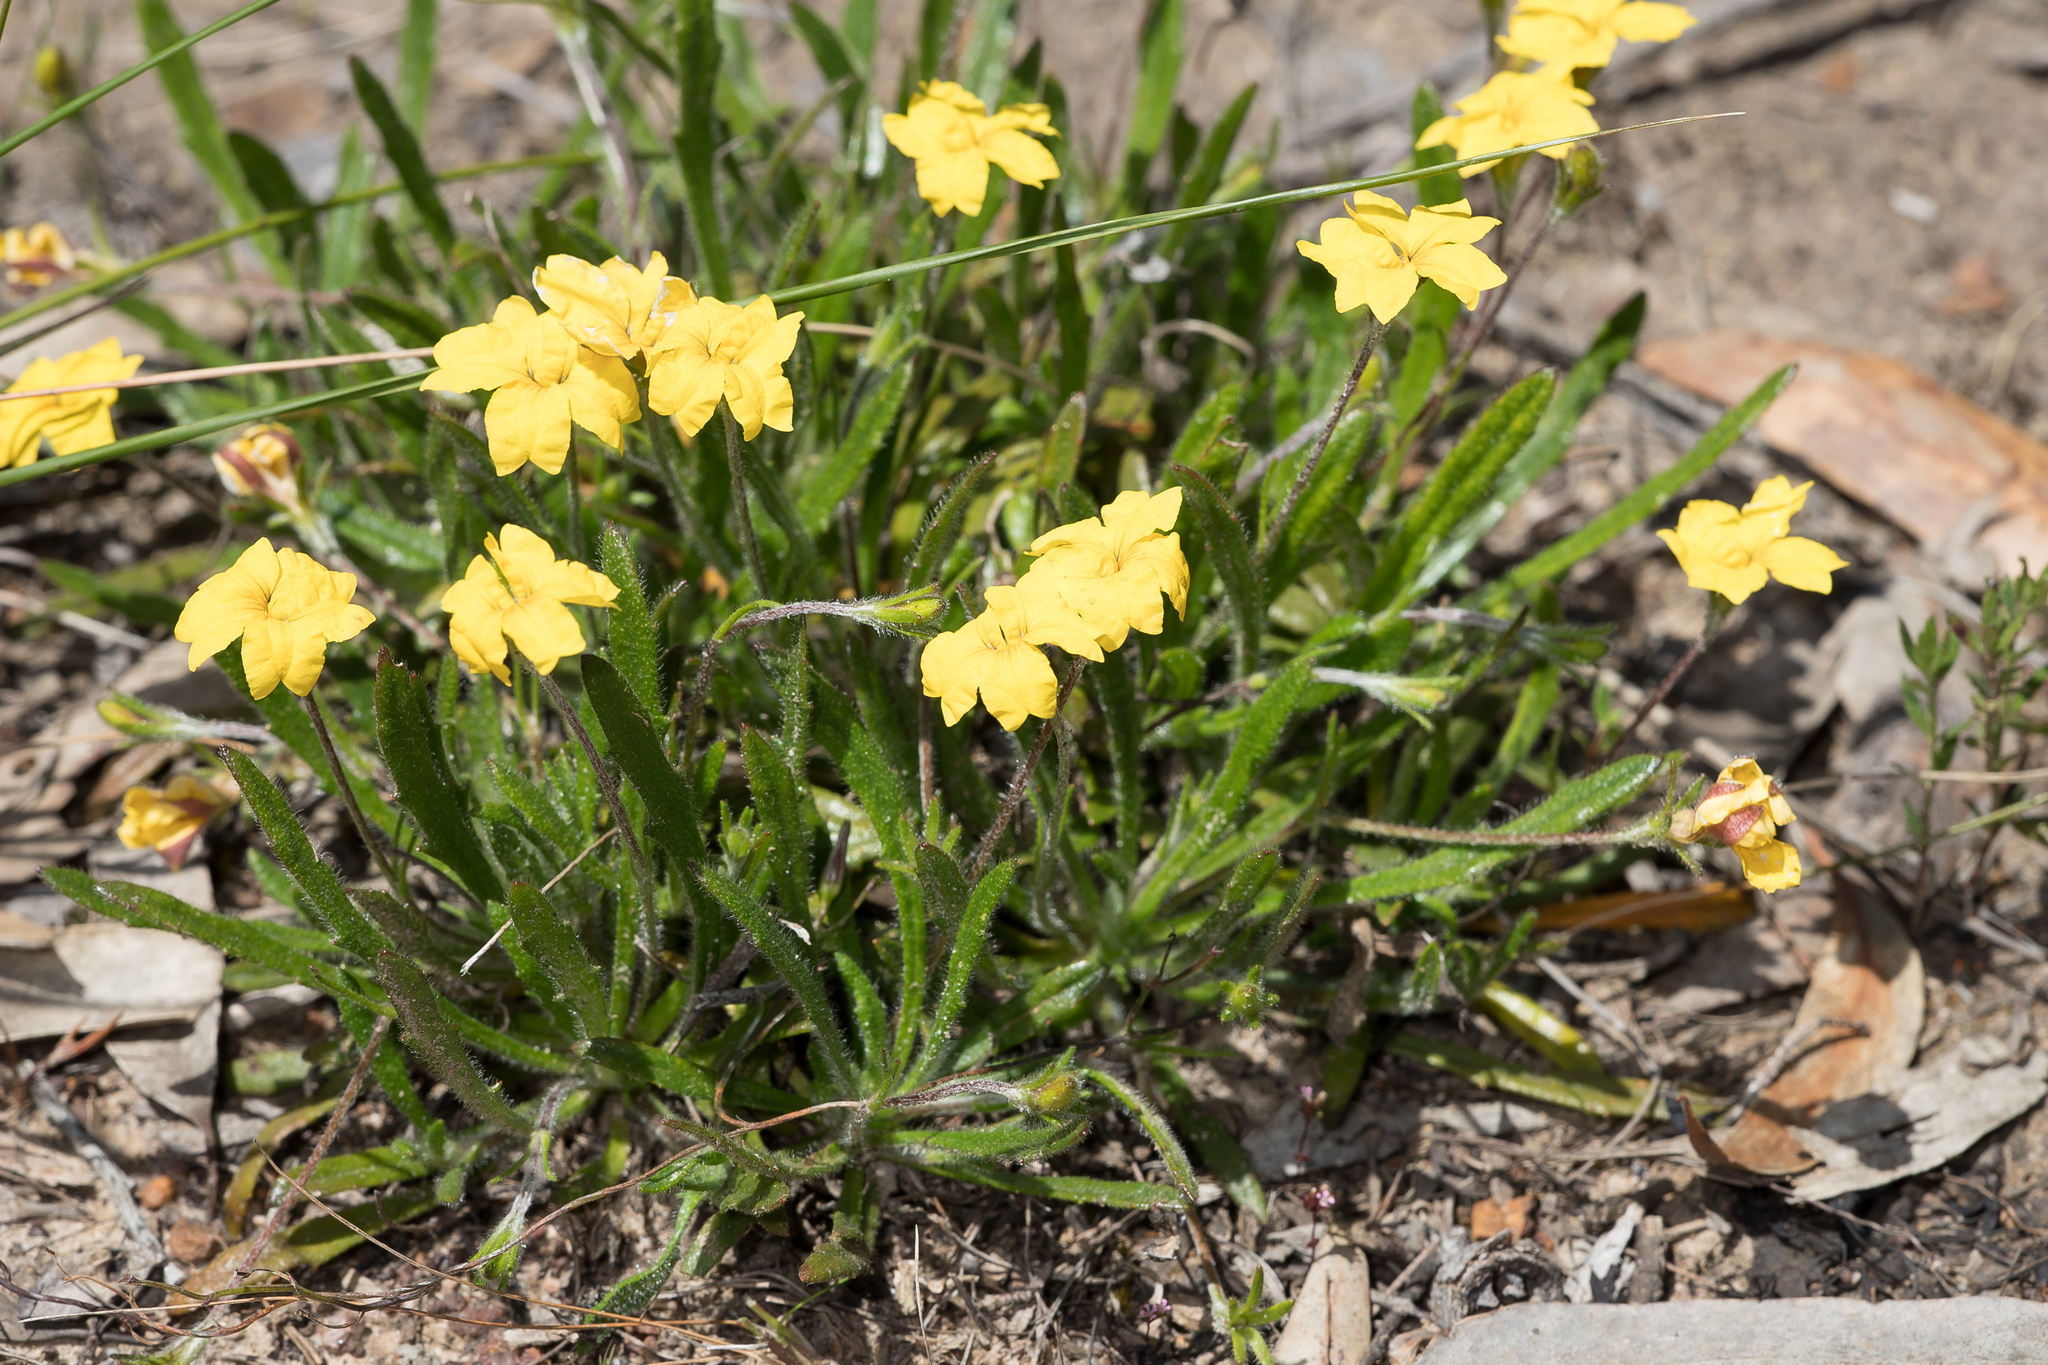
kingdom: Plantae
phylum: Tracheophyta
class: Magnoliopsida
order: Asterales
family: Goodeniaceae
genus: Goodenia
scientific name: Goodenia geniculata
